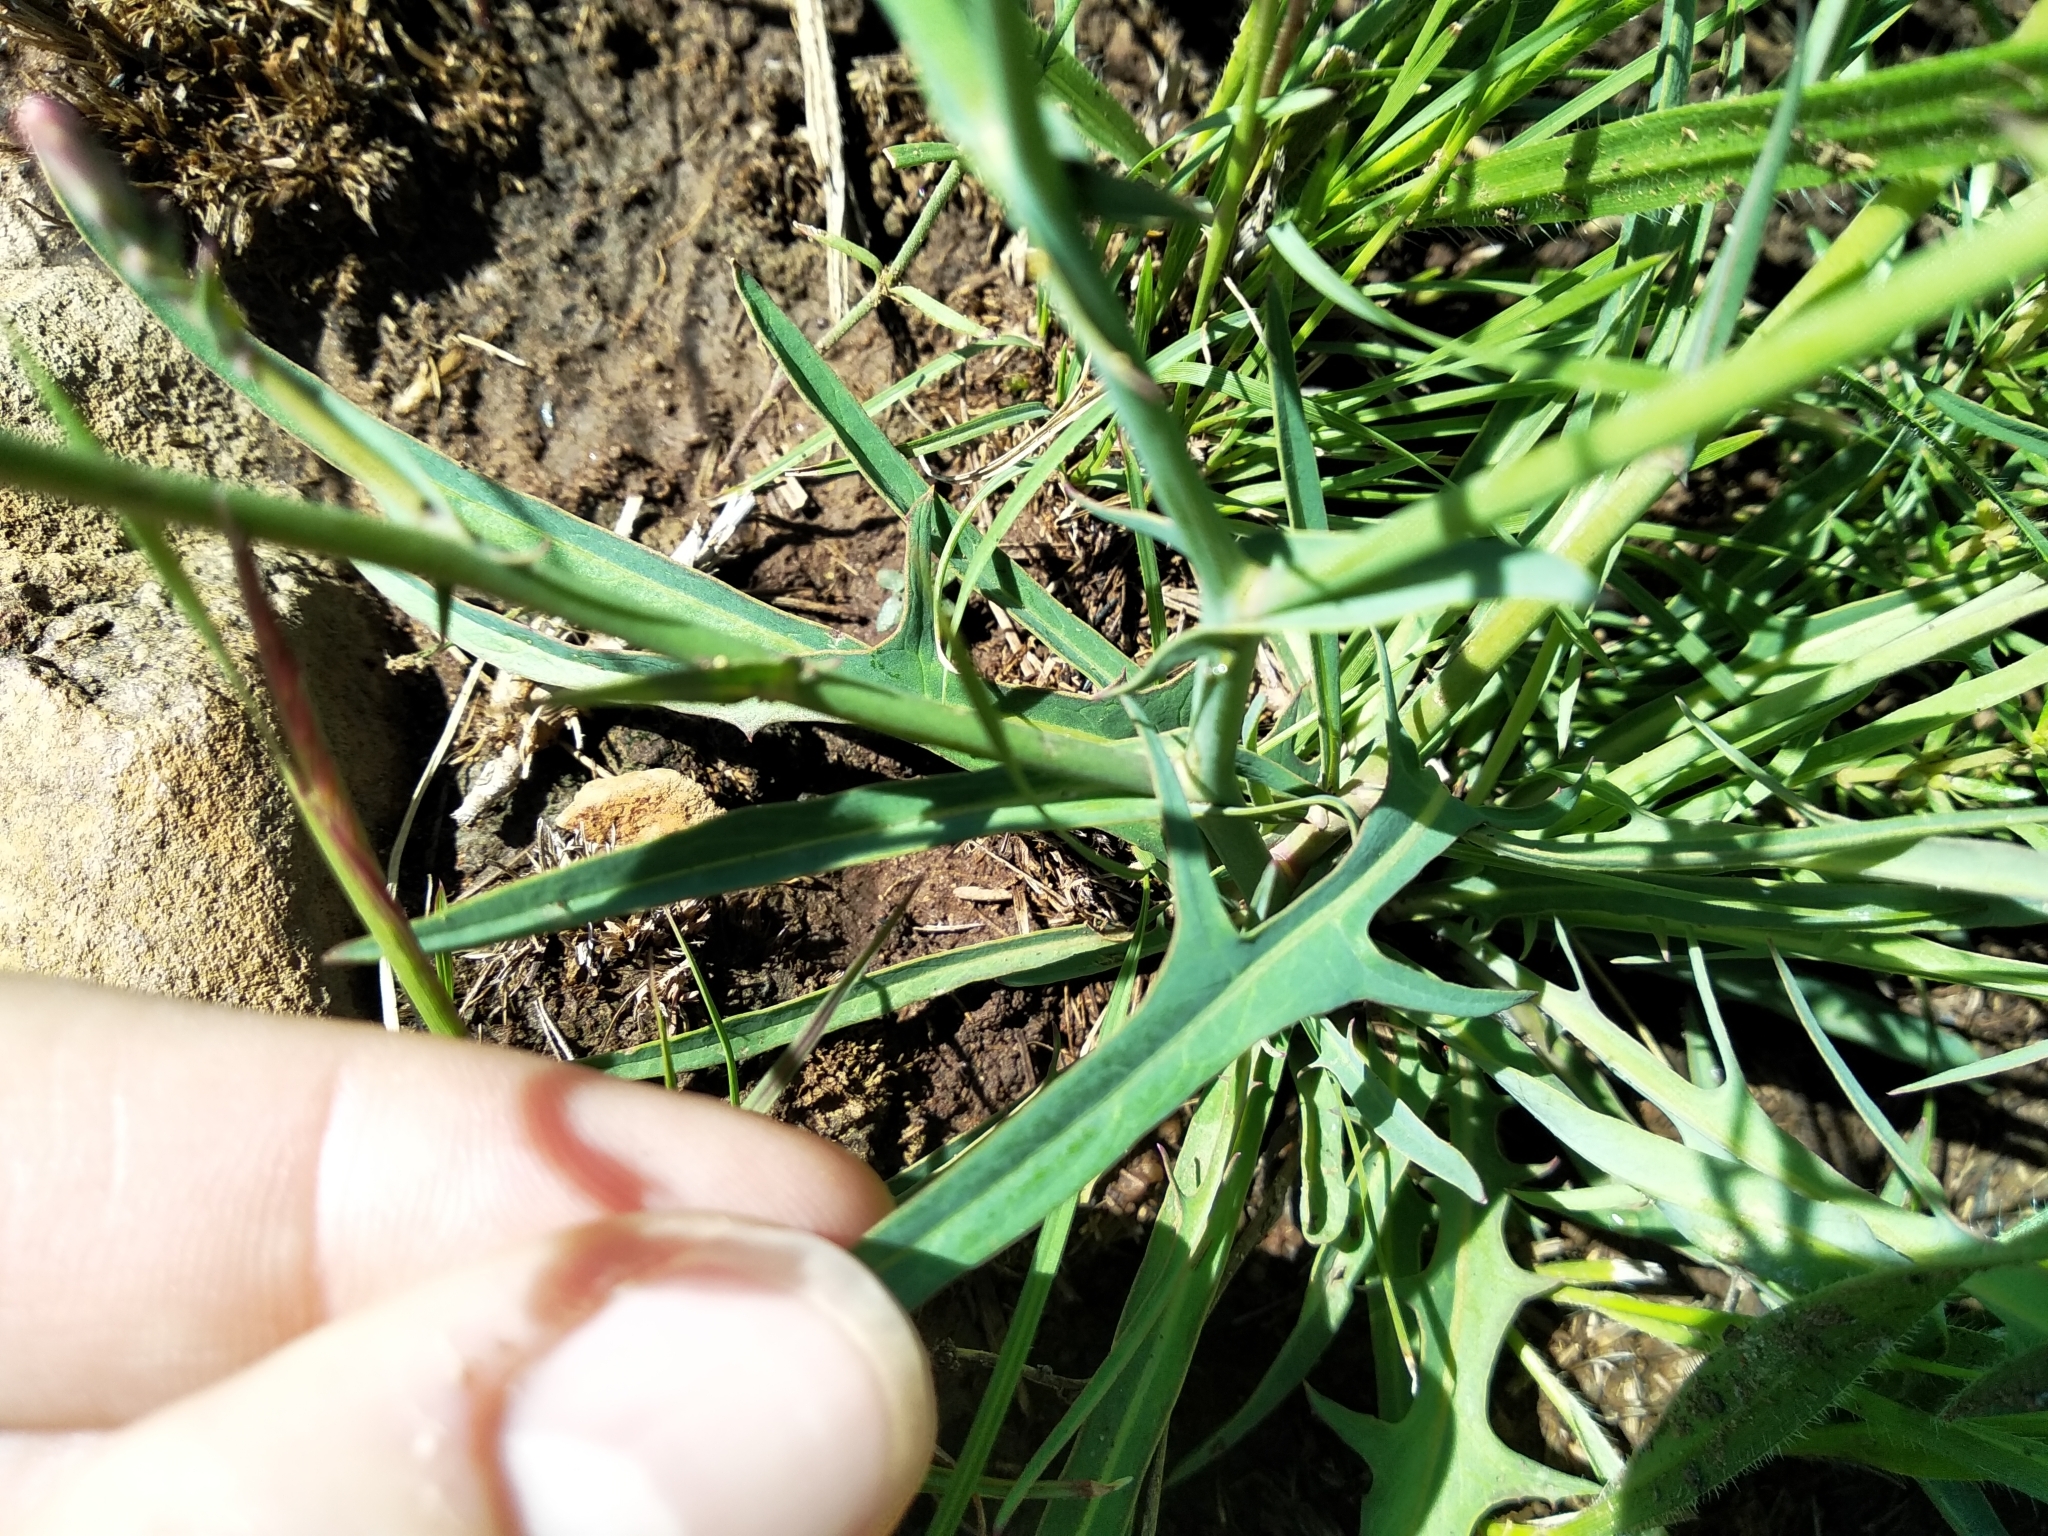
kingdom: Plantae
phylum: Tracheophyta
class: Magnoliopsida
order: Asterales
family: Asteraceae
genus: Lactuca
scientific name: Lactuca inermis
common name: Wild lettuce
